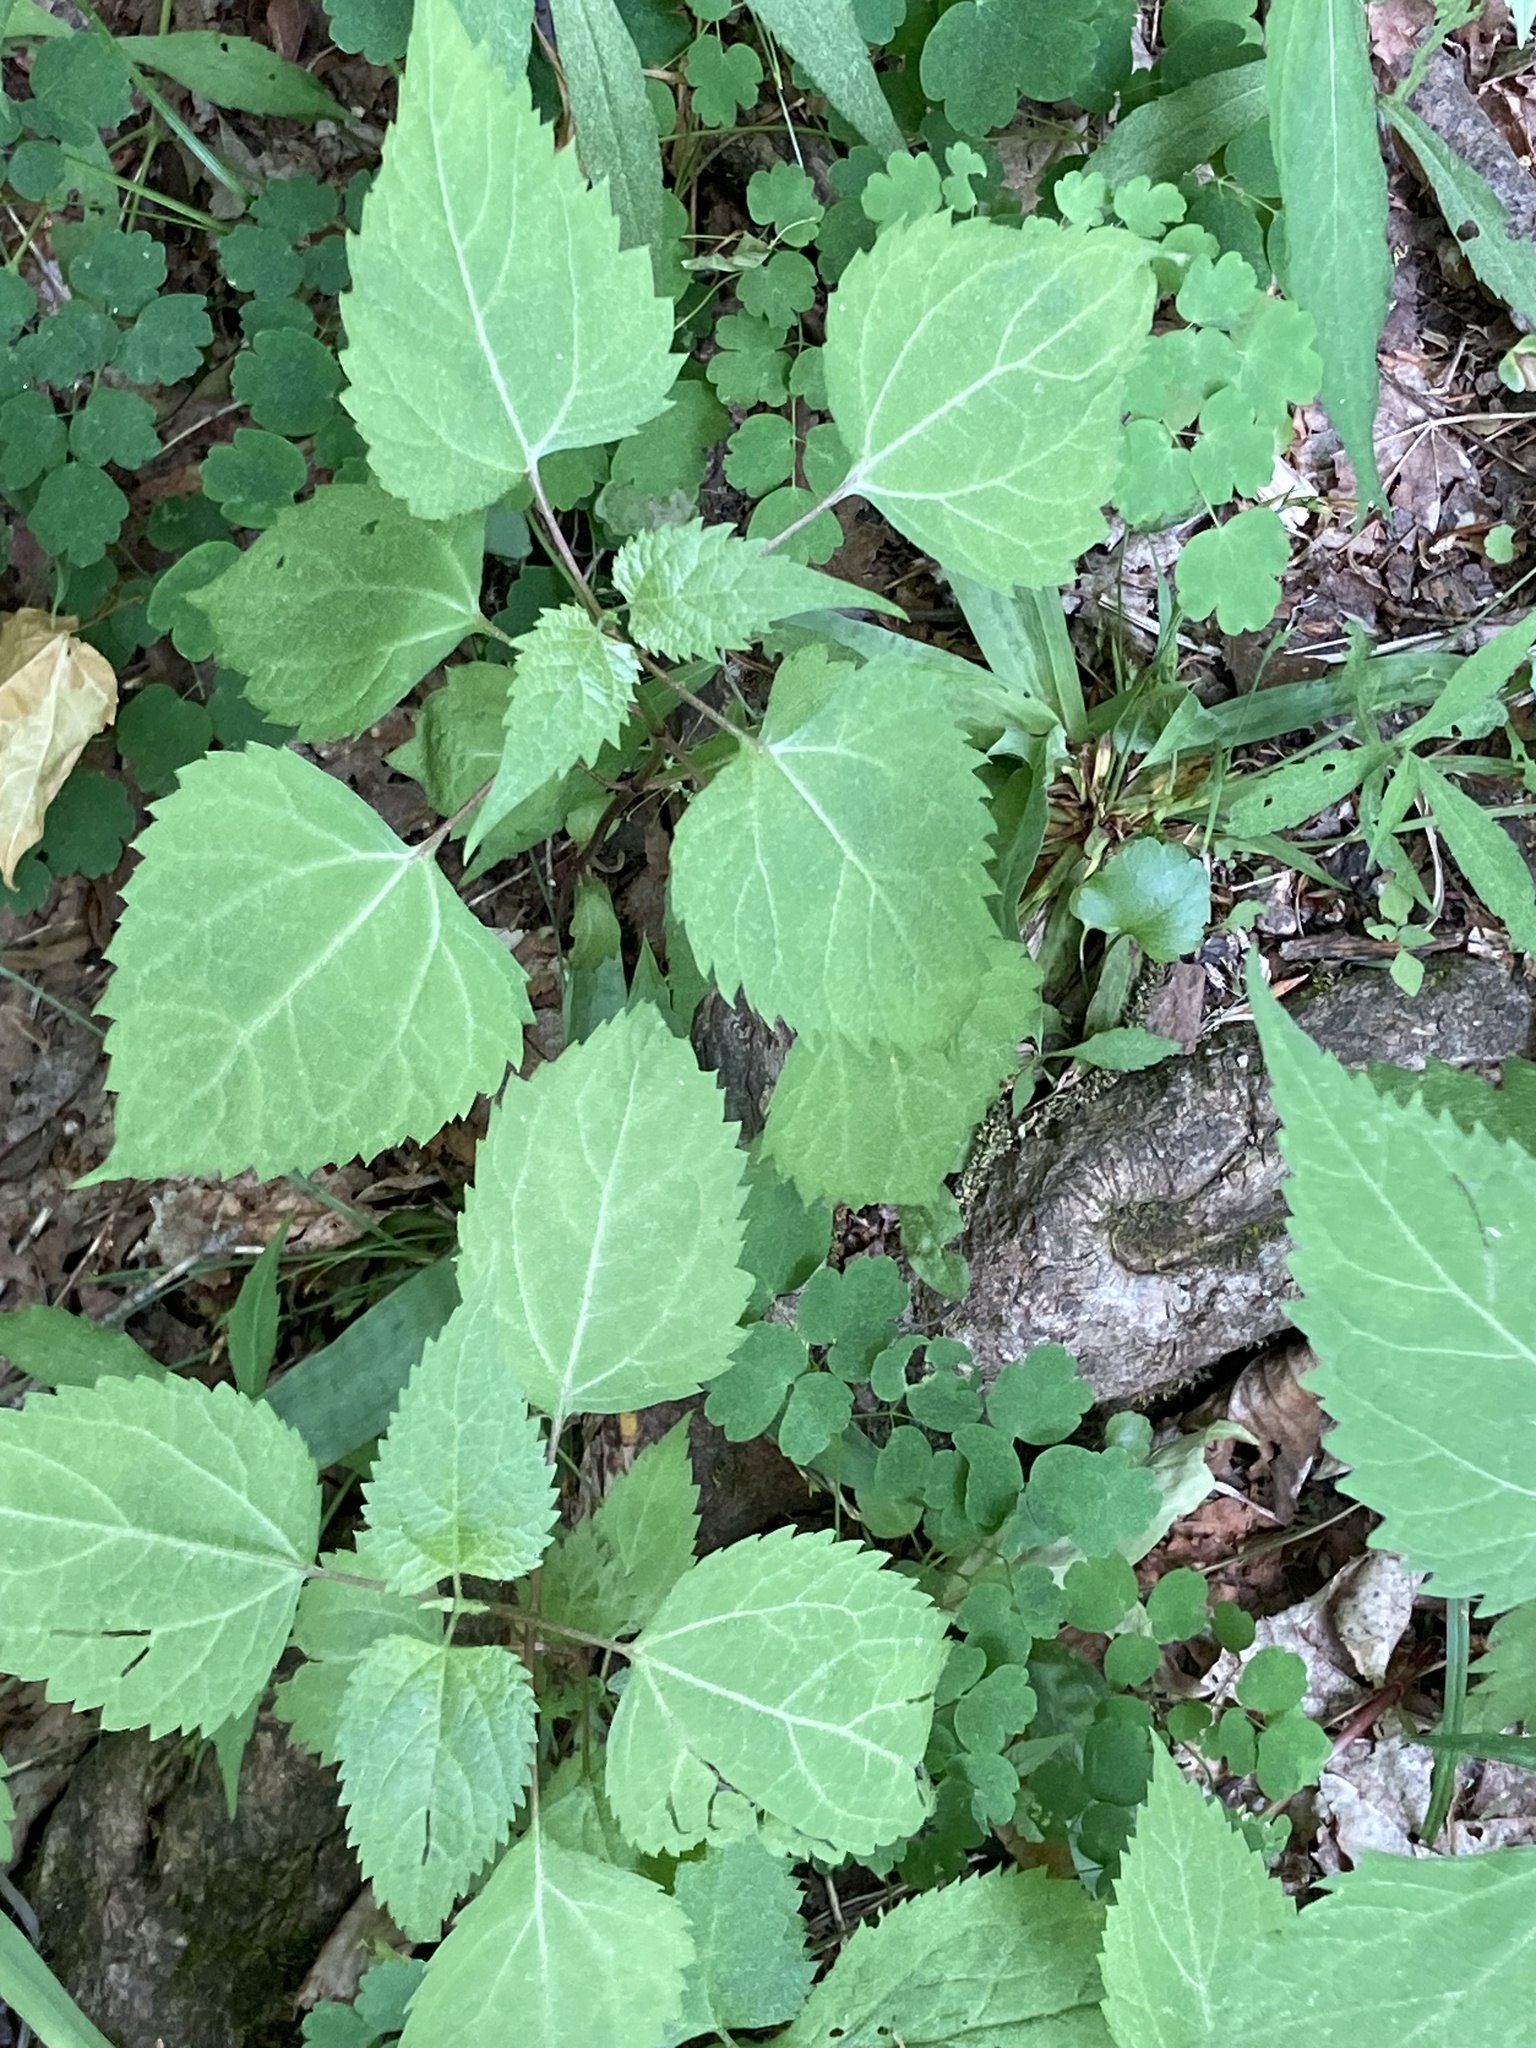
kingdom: Plantae
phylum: Tracheophyta
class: Magnoliopsida
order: Asterales
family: Asteraceae
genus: Ageratina
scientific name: Ageratina altissima
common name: White snakeroot
